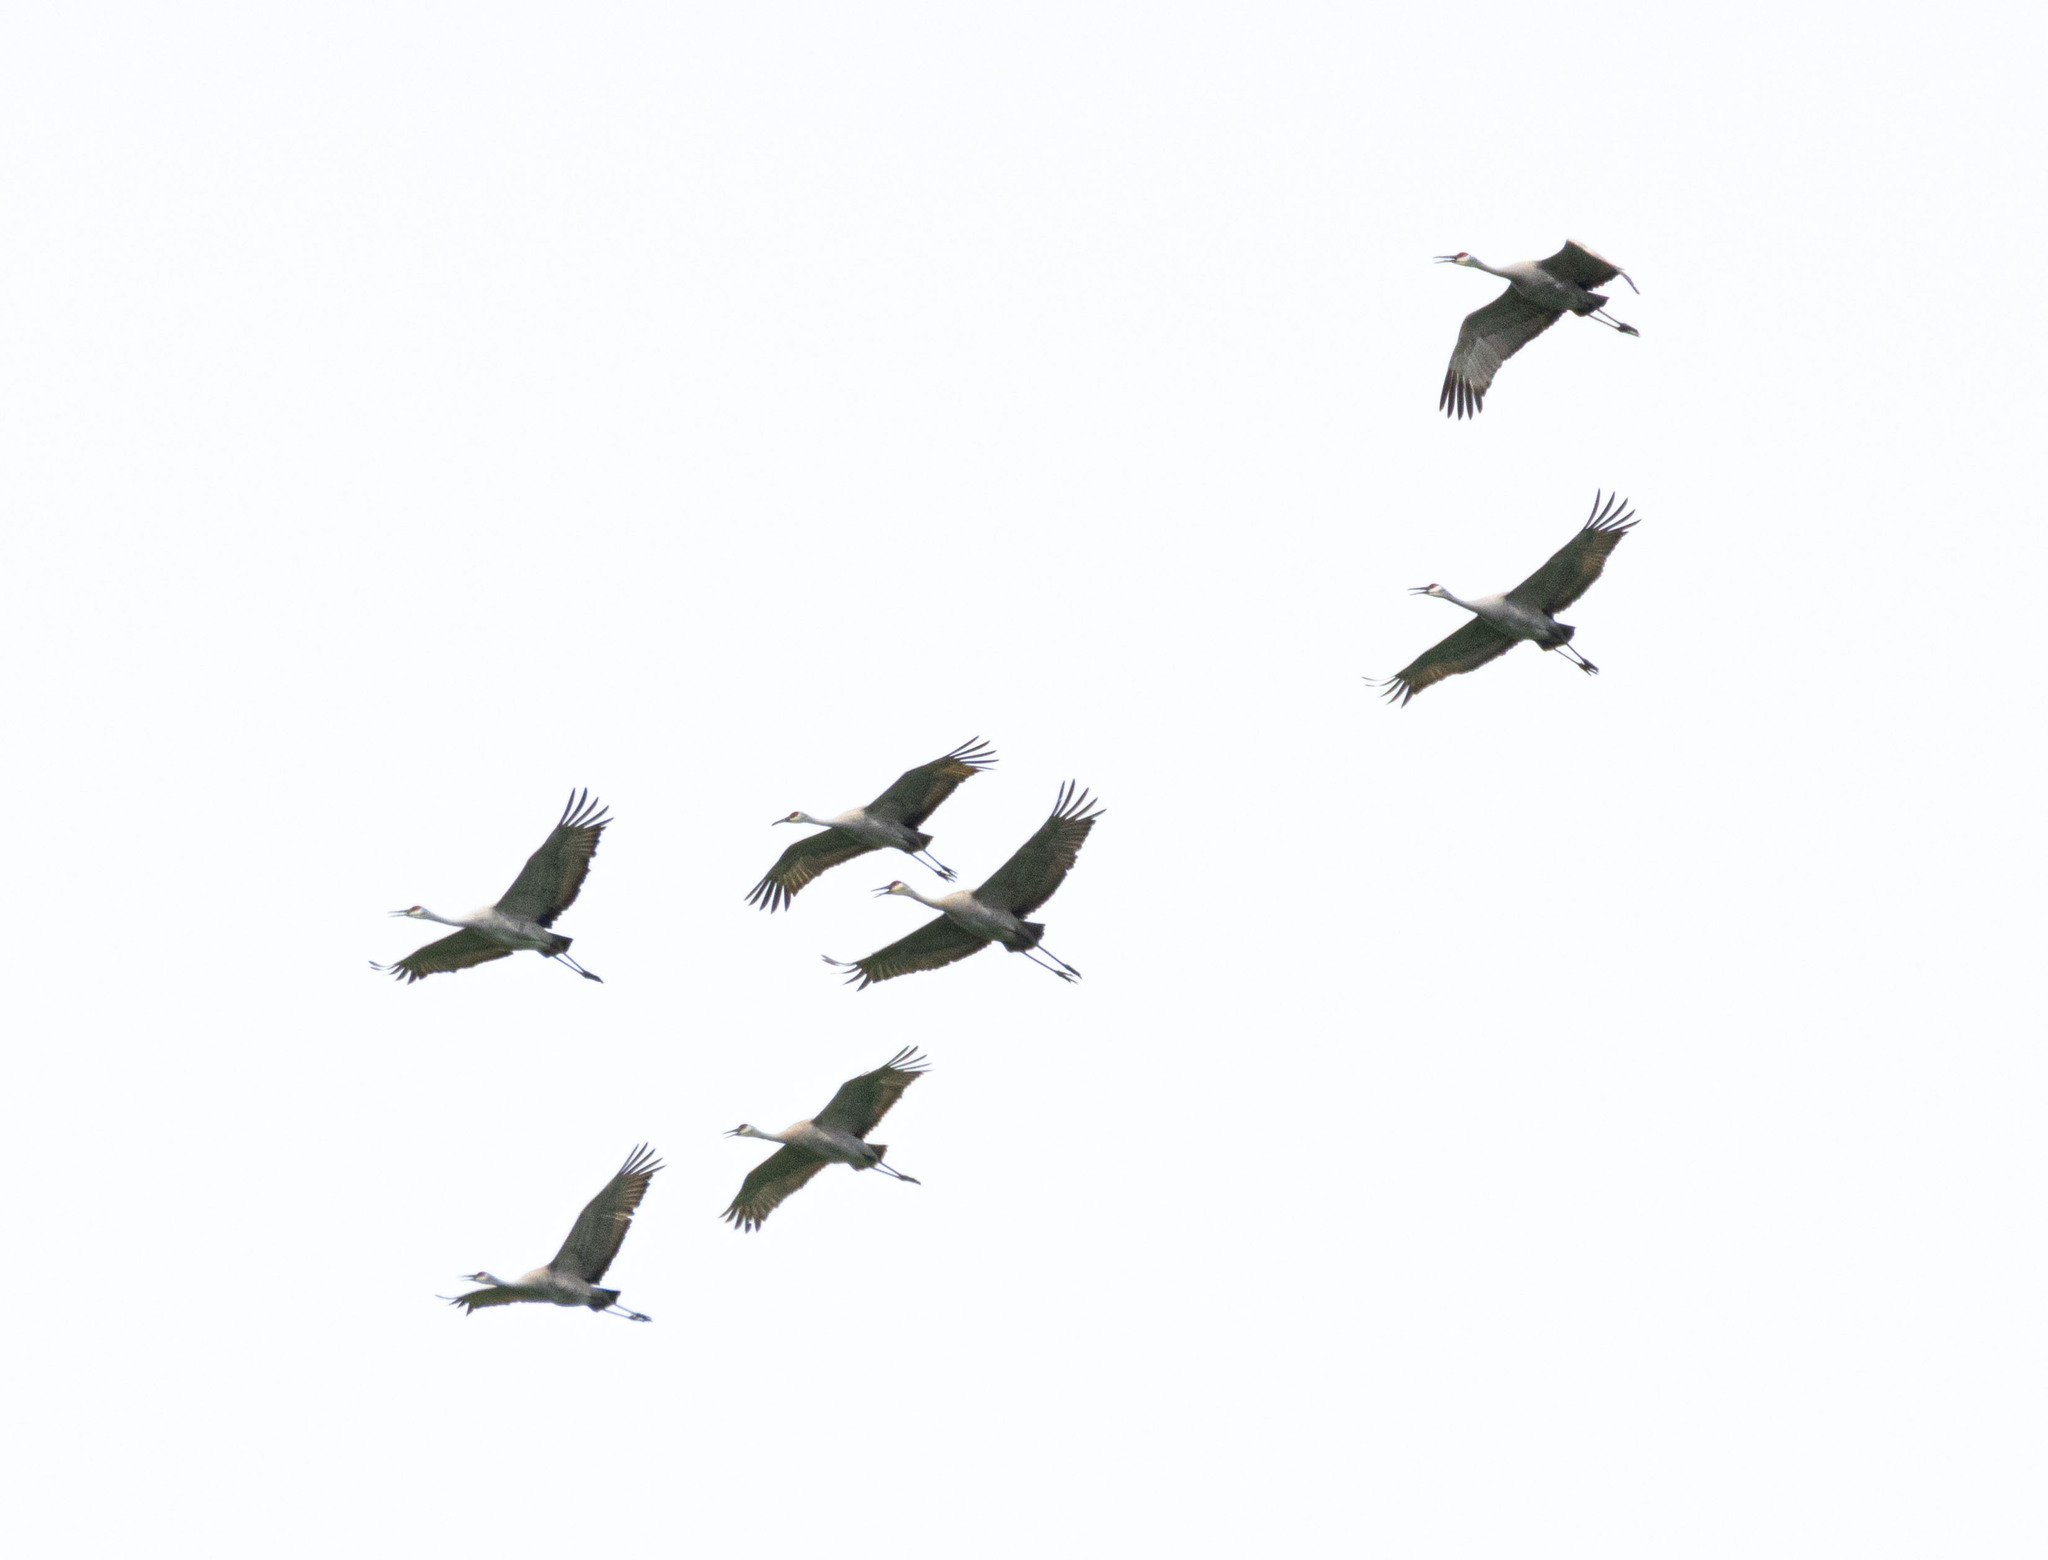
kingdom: Animalia
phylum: Chordata
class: Aves
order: Gruiformes
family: Gruidae
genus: Grus
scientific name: Grus canadensis
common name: Sandhill crane
